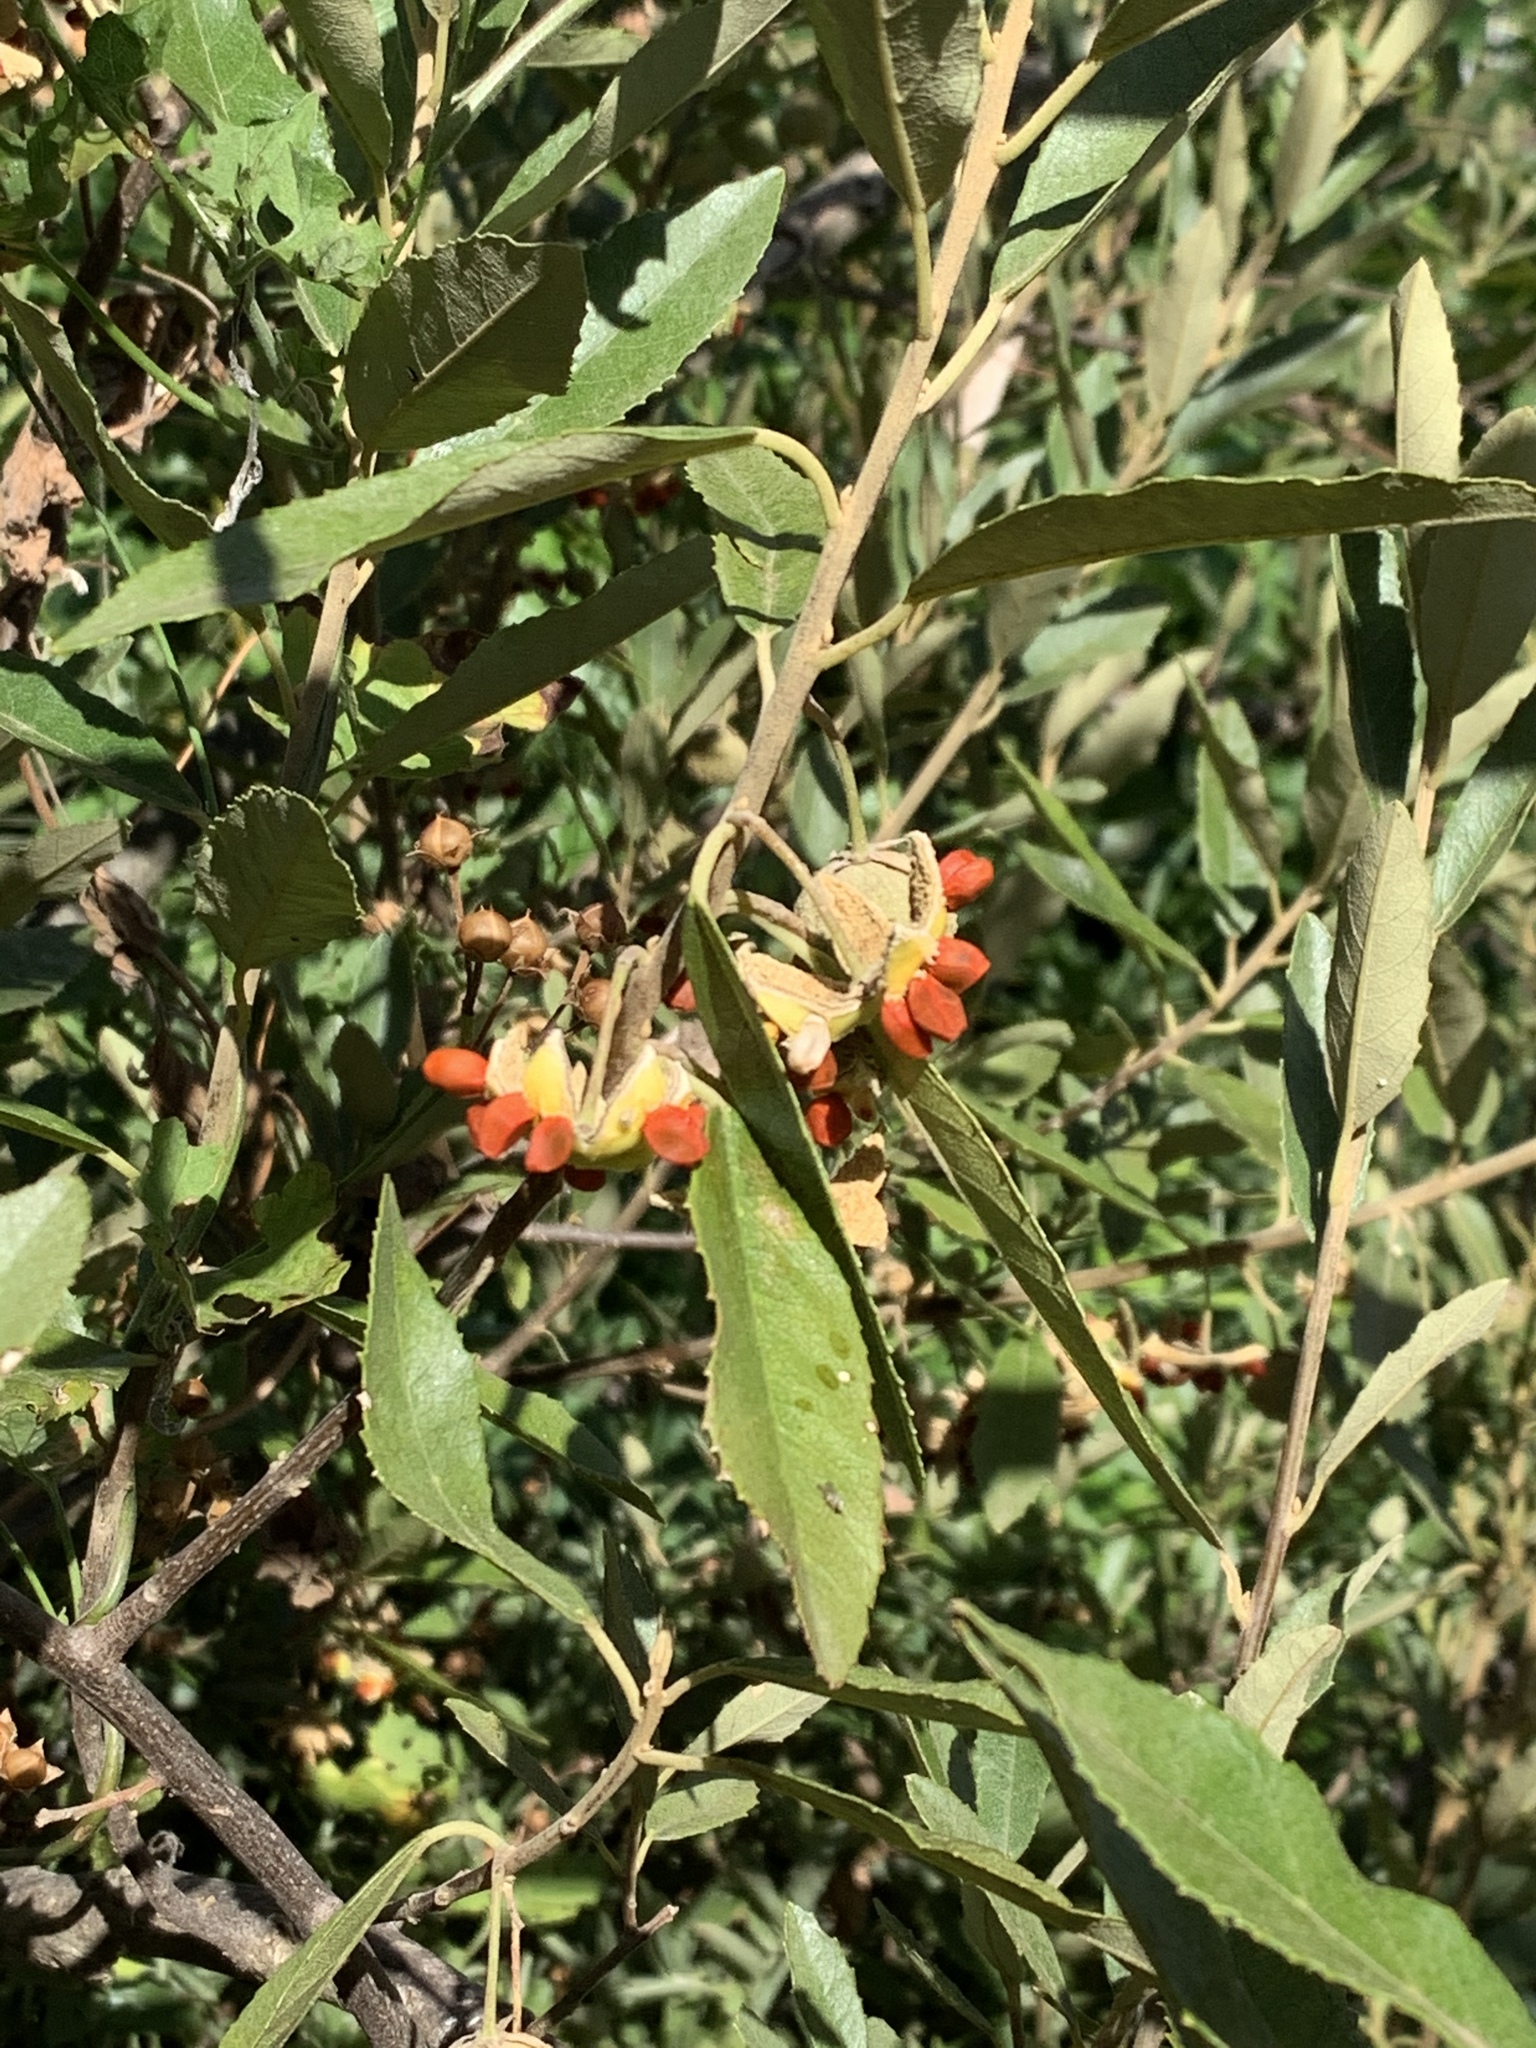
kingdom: Plantae
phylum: Tracheophyta
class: Magnoliopsida
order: Malpighiales
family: Achariaceae
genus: Kiggelaria
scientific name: Kiggelaria africana
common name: Wild peach
